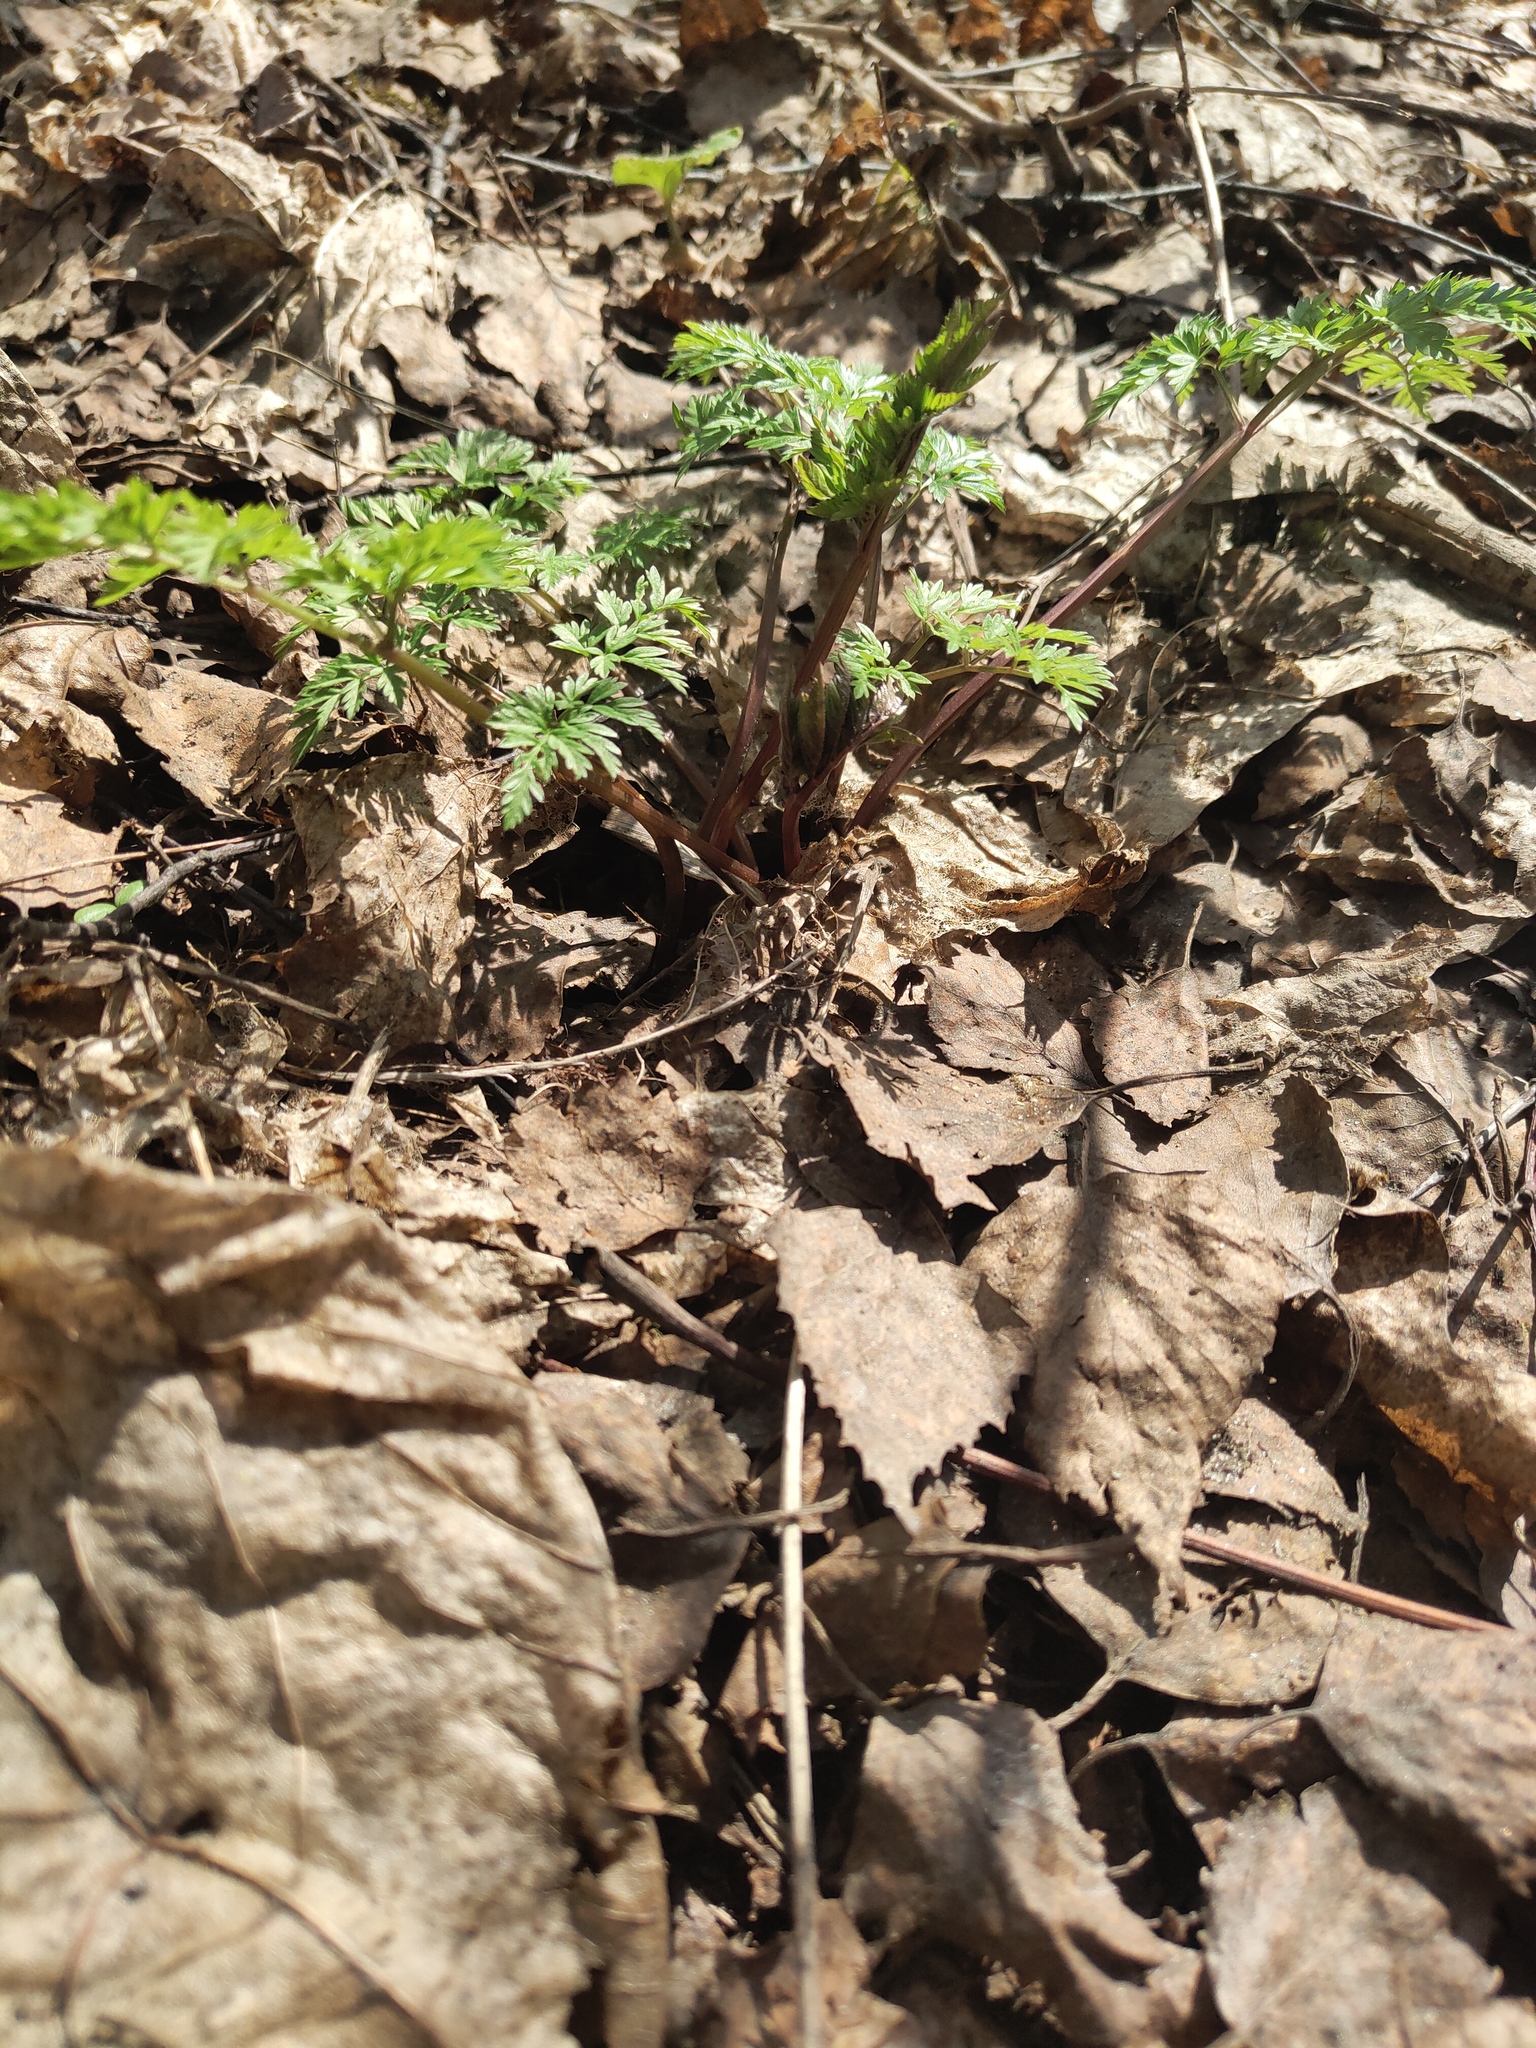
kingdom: Plantae
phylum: Tracheophyta
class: Magnoliopsida
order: Apiales
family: Apiaceae
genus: Anthriscus
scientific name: Anthriscus sylvestris
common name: Cow parsley
